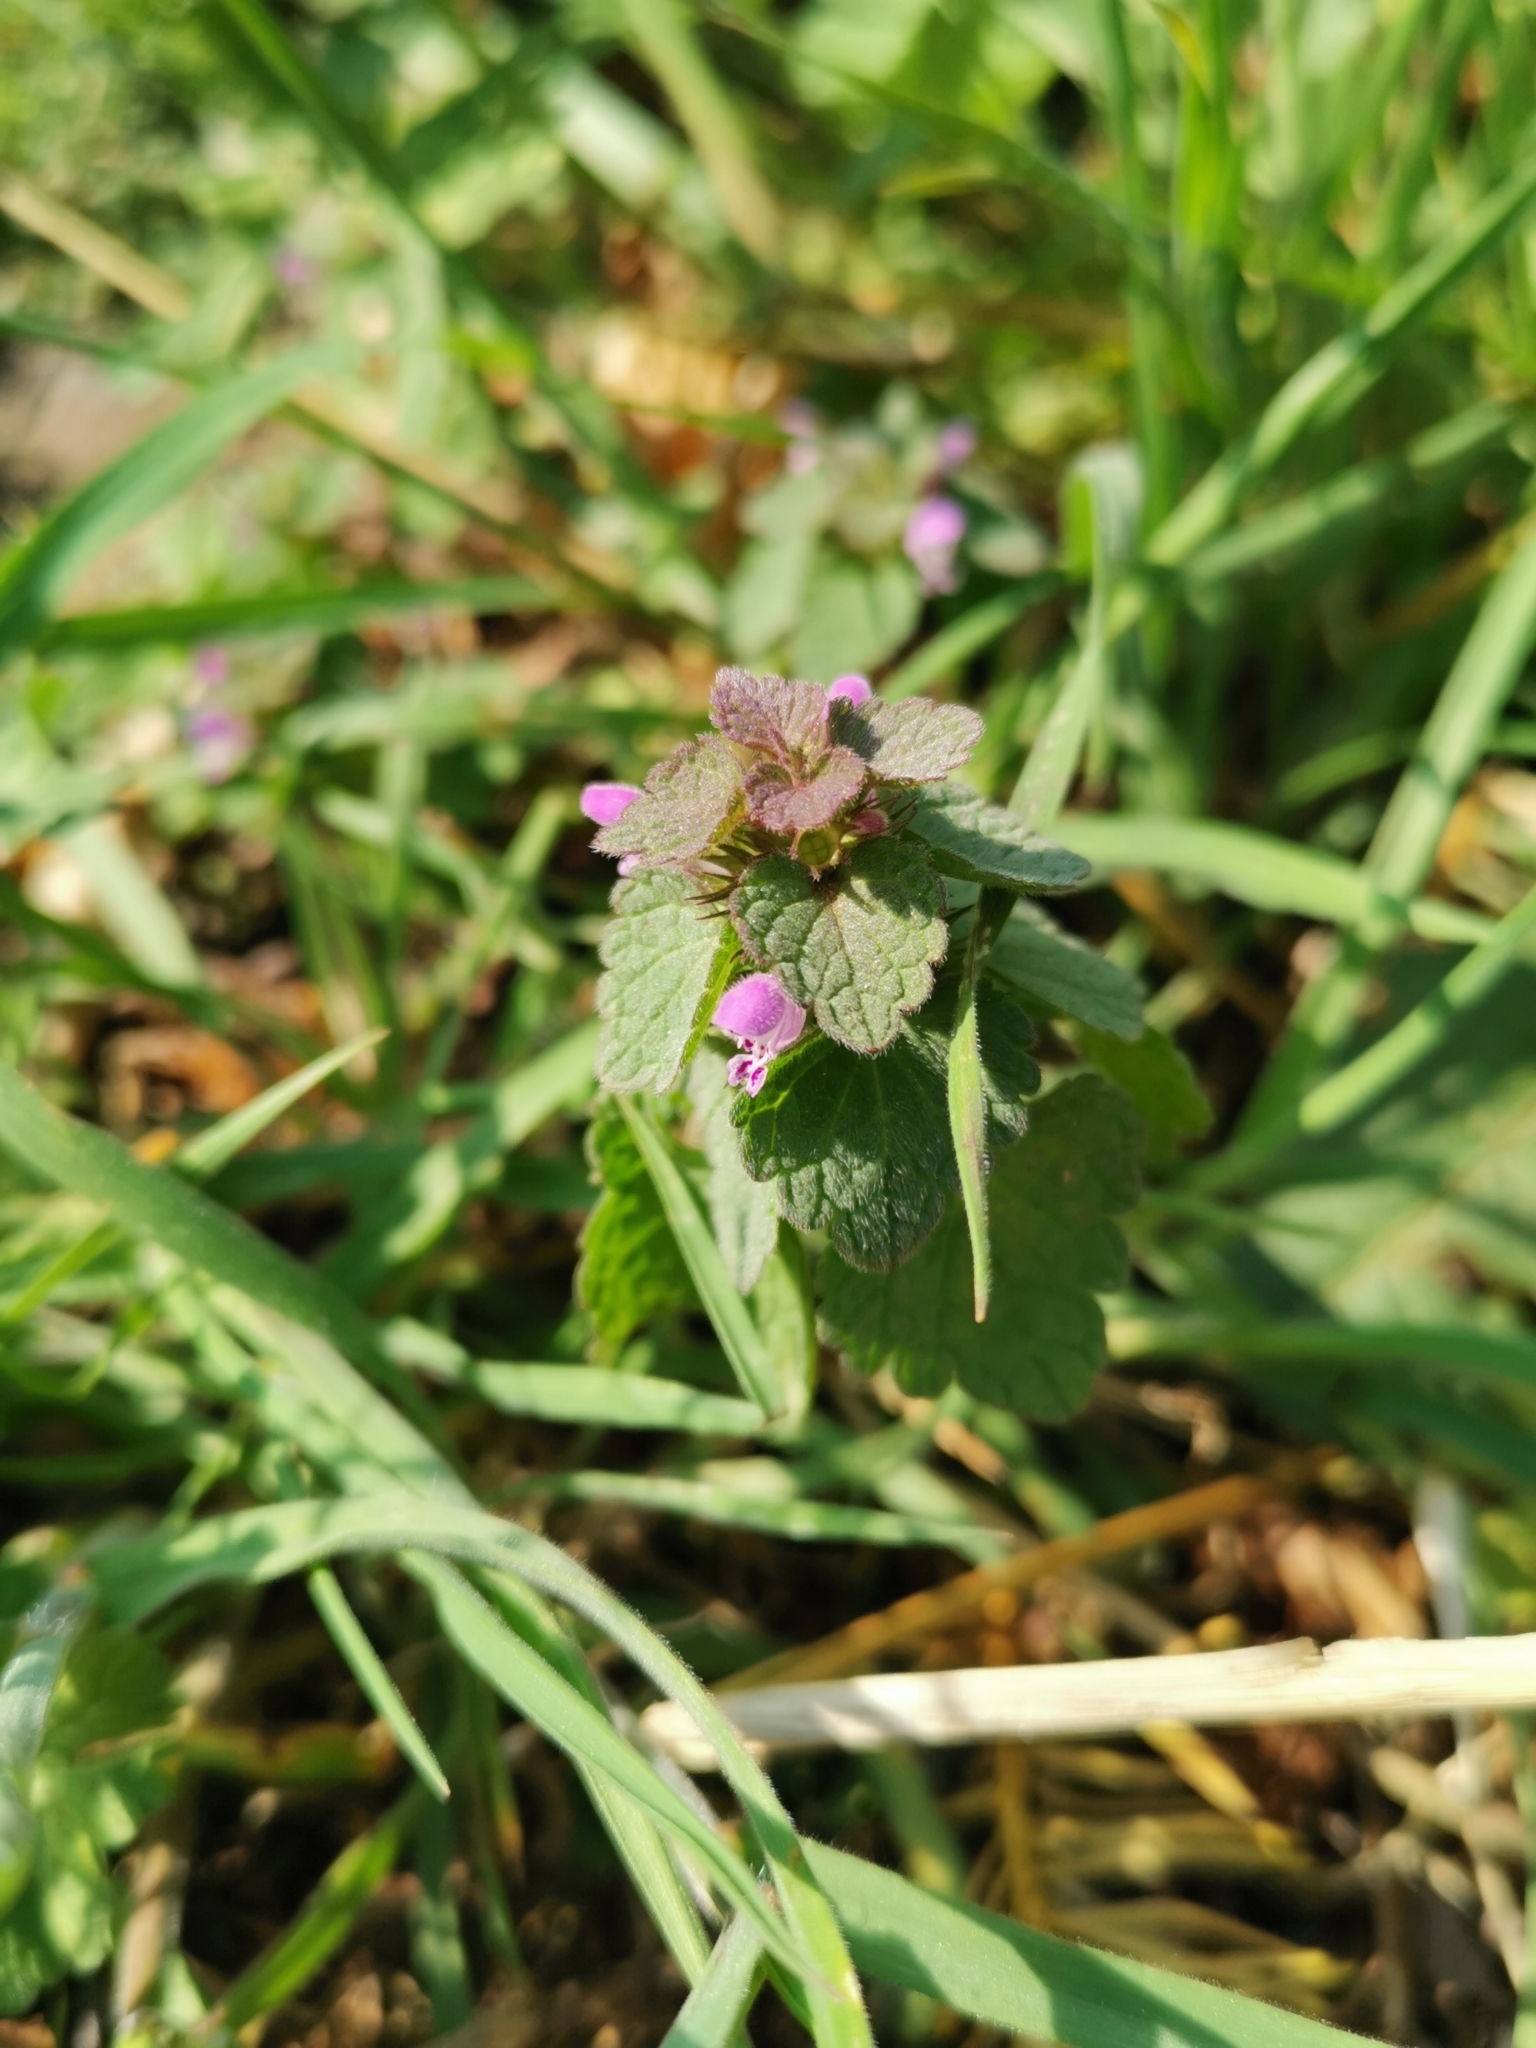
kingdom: Plantae
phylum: Tracheophyta
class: Magnoliopsida
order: Lamiales
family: Lamiaceae
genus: Lamium
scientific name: Lamium purpureum
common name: Red dead-nettle
